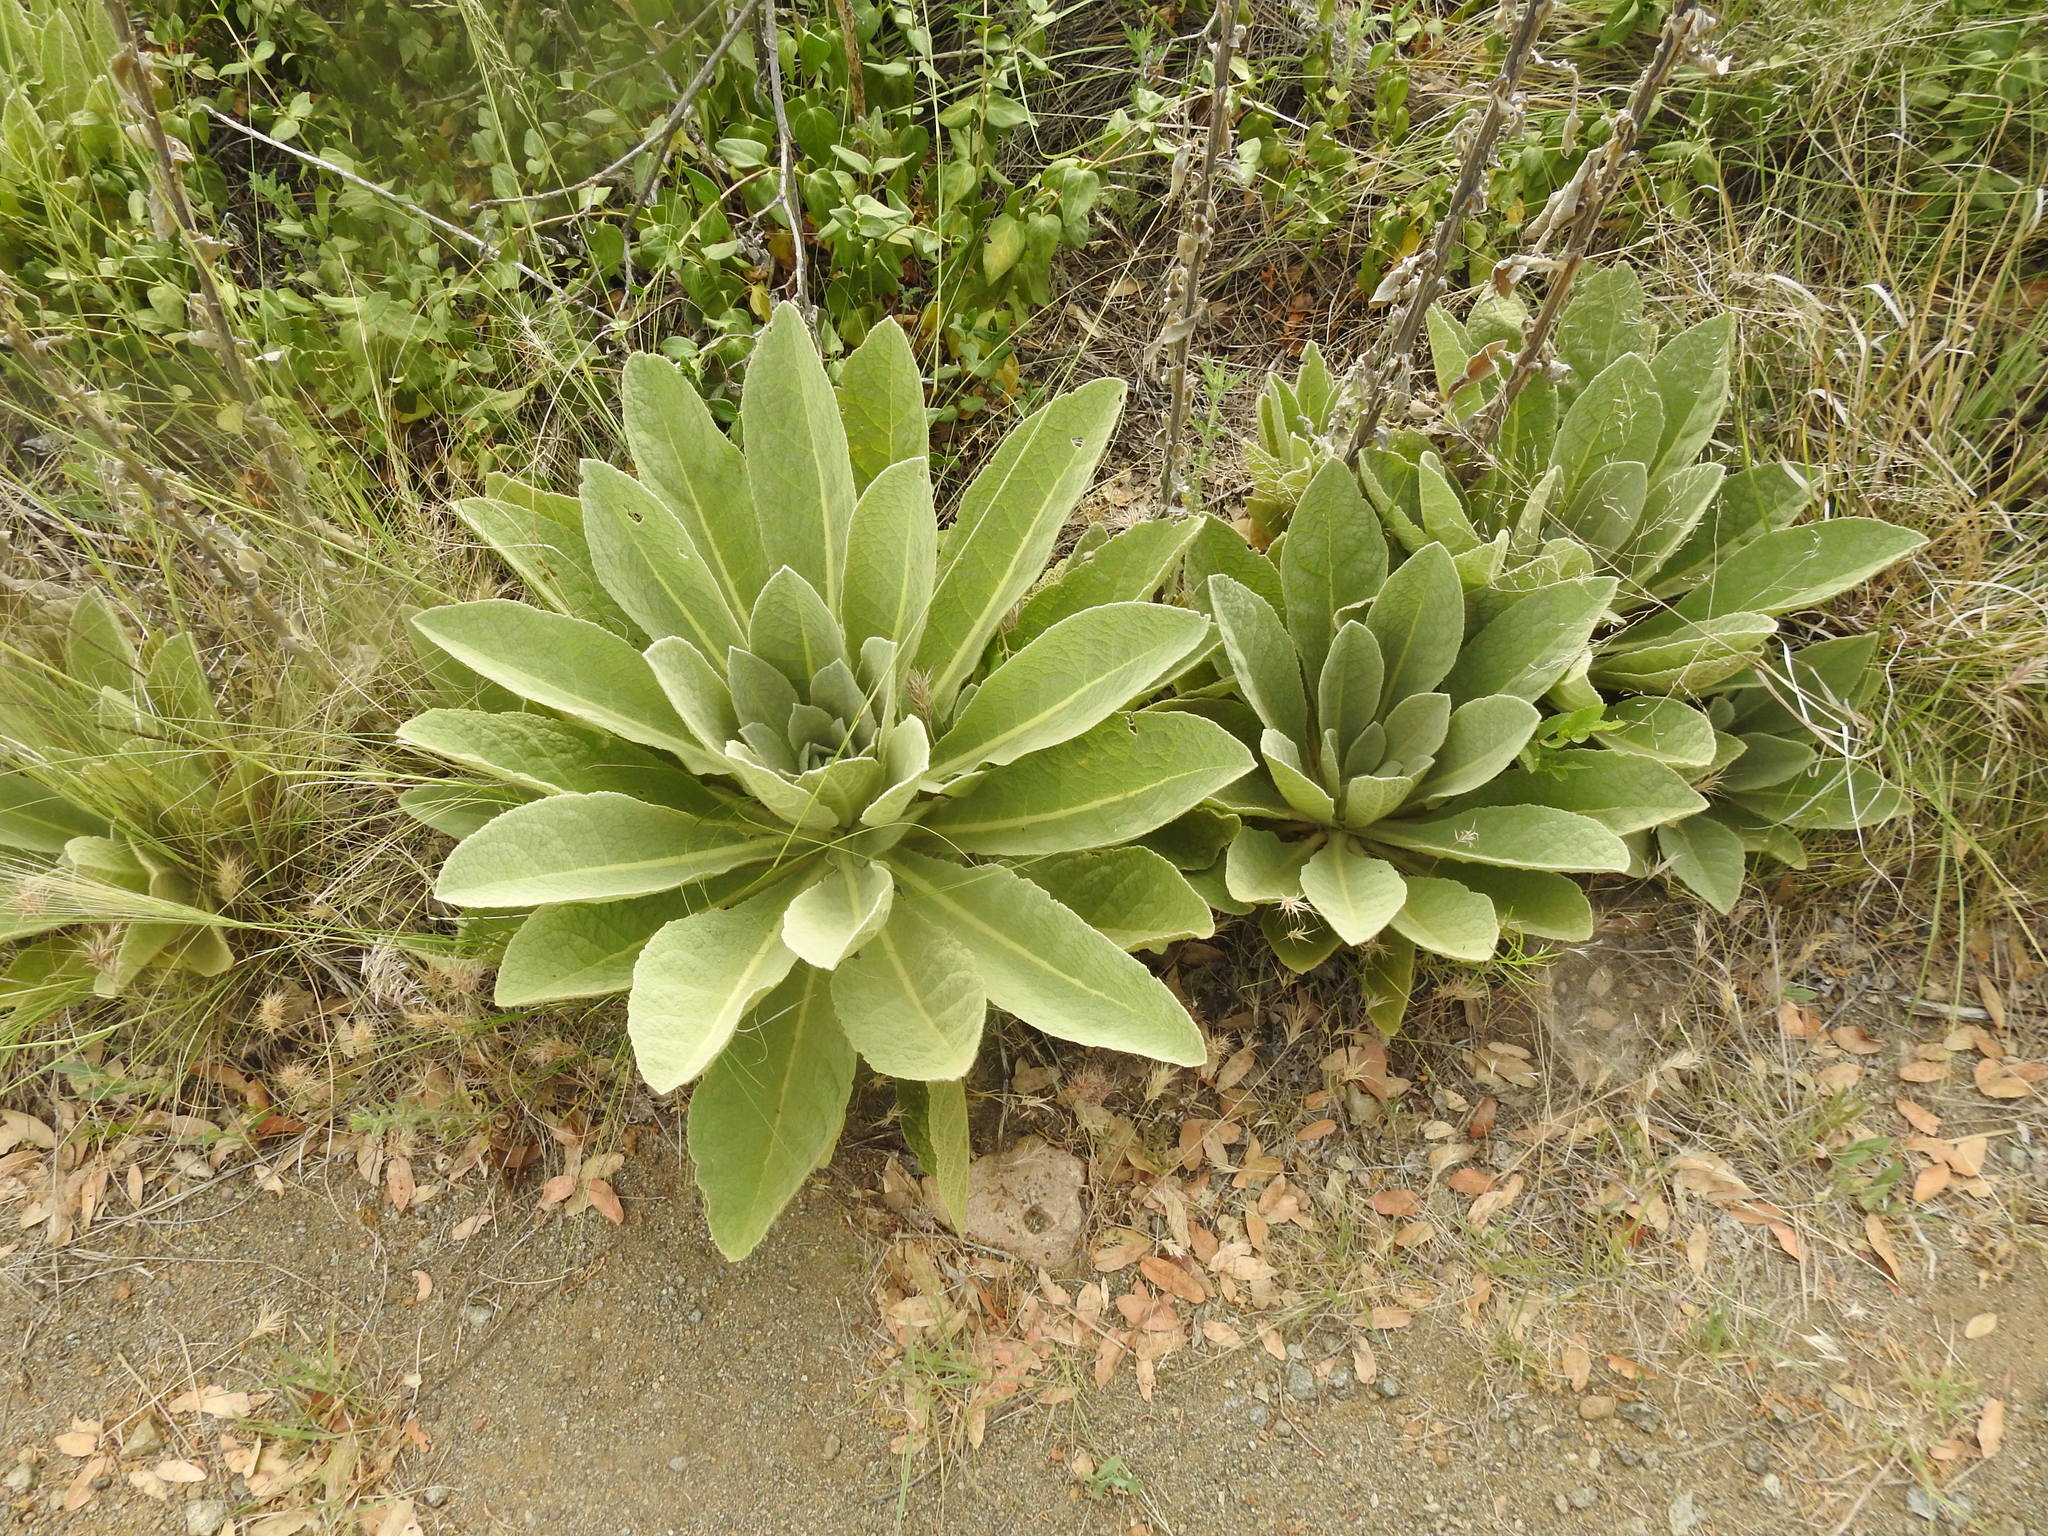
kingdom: Plantae
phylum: Tracheophyta
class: Magnoliopsida
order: Lamiales
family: Scrophulariaceae
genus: Verbascum
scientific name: Verbascum thapsus
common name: Common mullein
